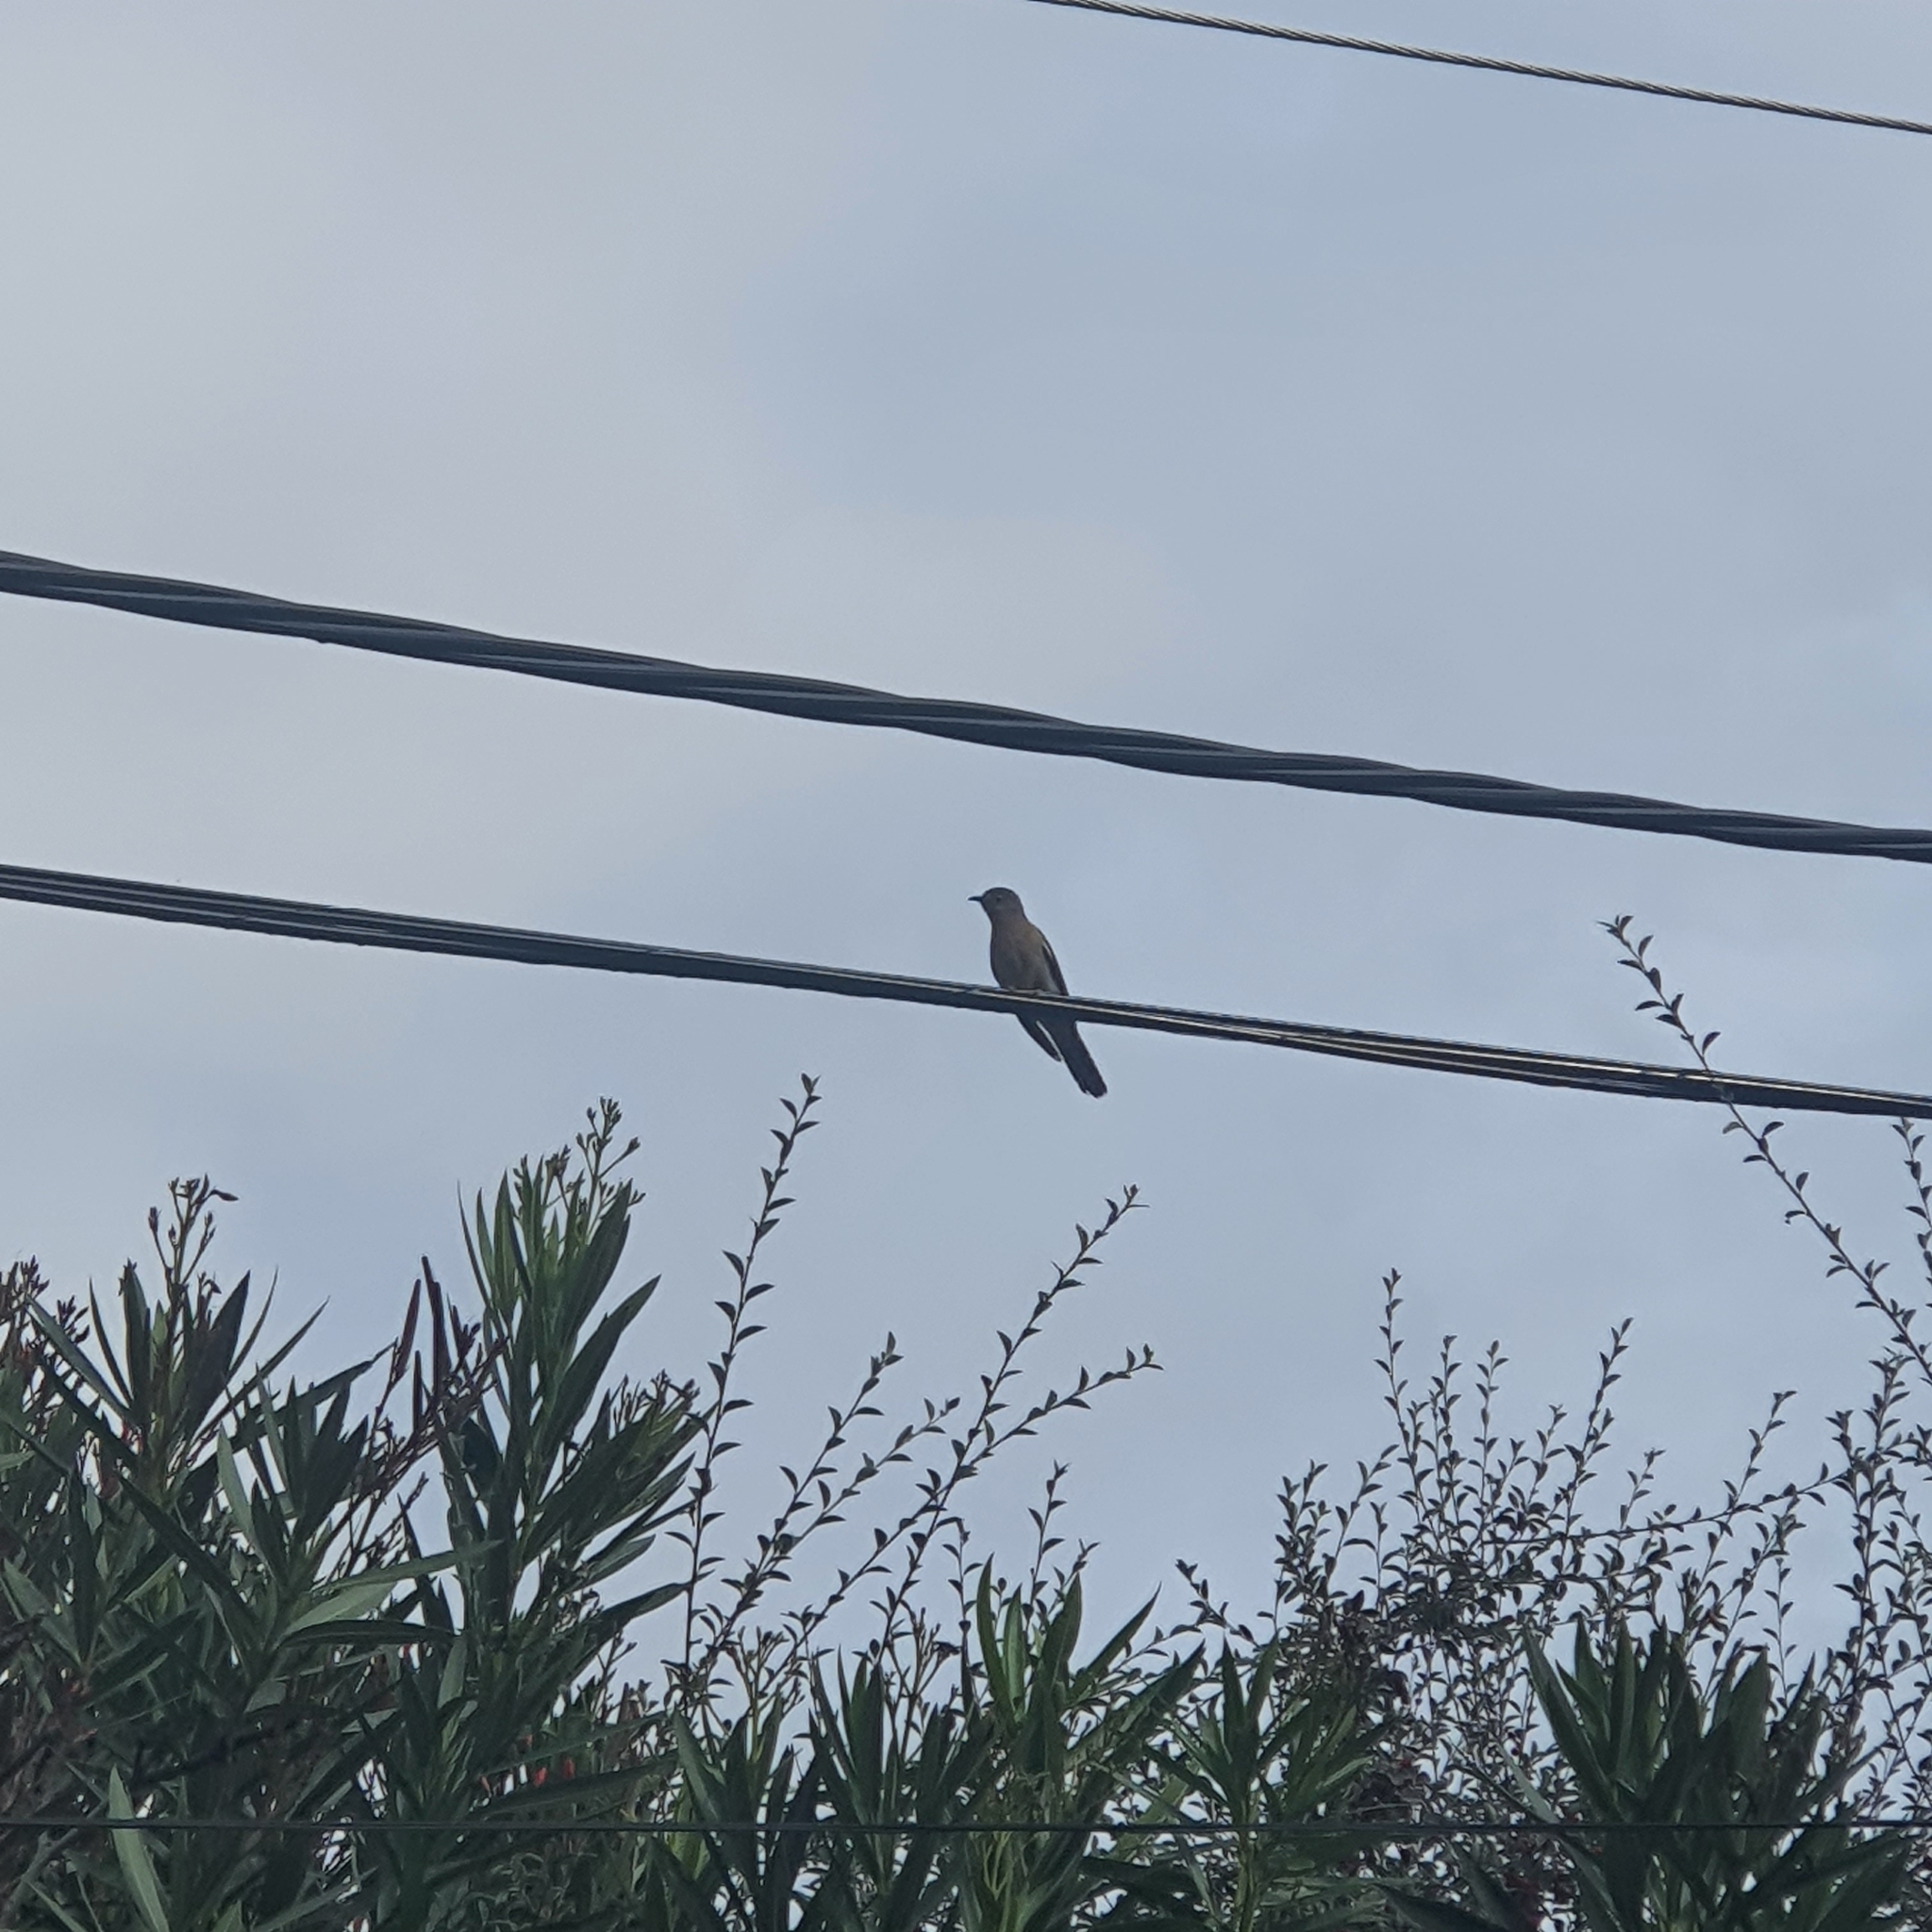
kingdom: Animalia
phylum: Chordata
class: Aves
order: Cuculiformes
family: Cuculidae
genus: Cacomantis
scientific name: Cacomantis flabelliformis
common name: Fan-tailed cuckoo
